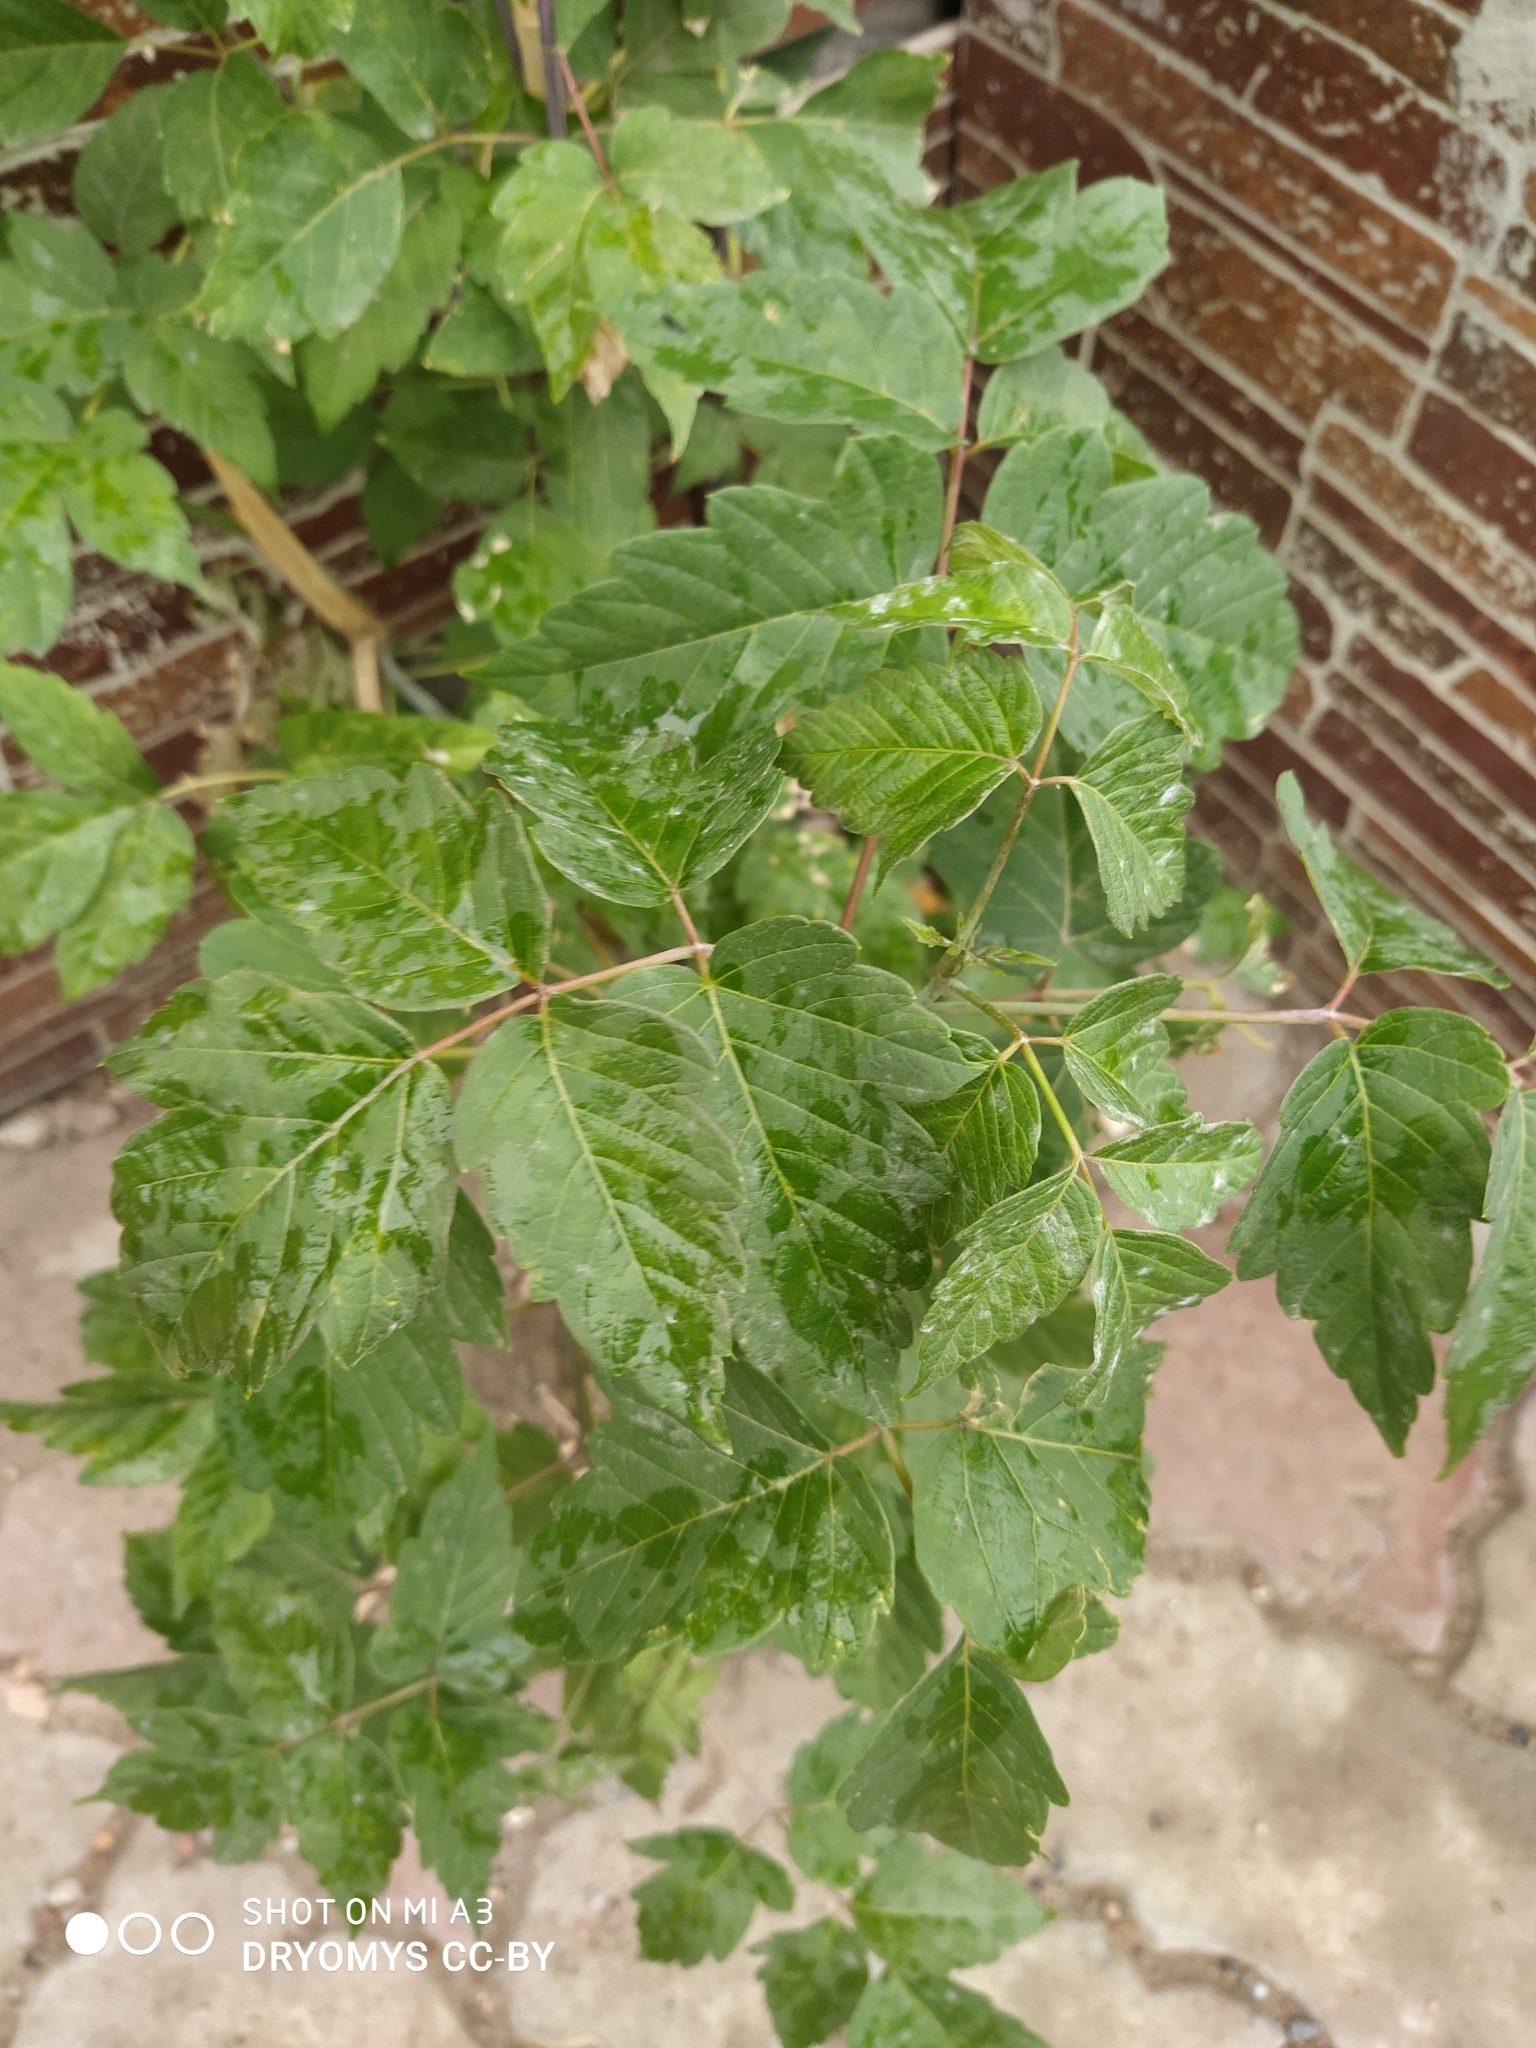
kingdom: Plantae
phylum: Tracheophyta
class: Magnoliopsida
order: Sapindales
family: Sapindaceae
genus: Acer
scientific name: Acer negundo
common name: Ashleaf maple
